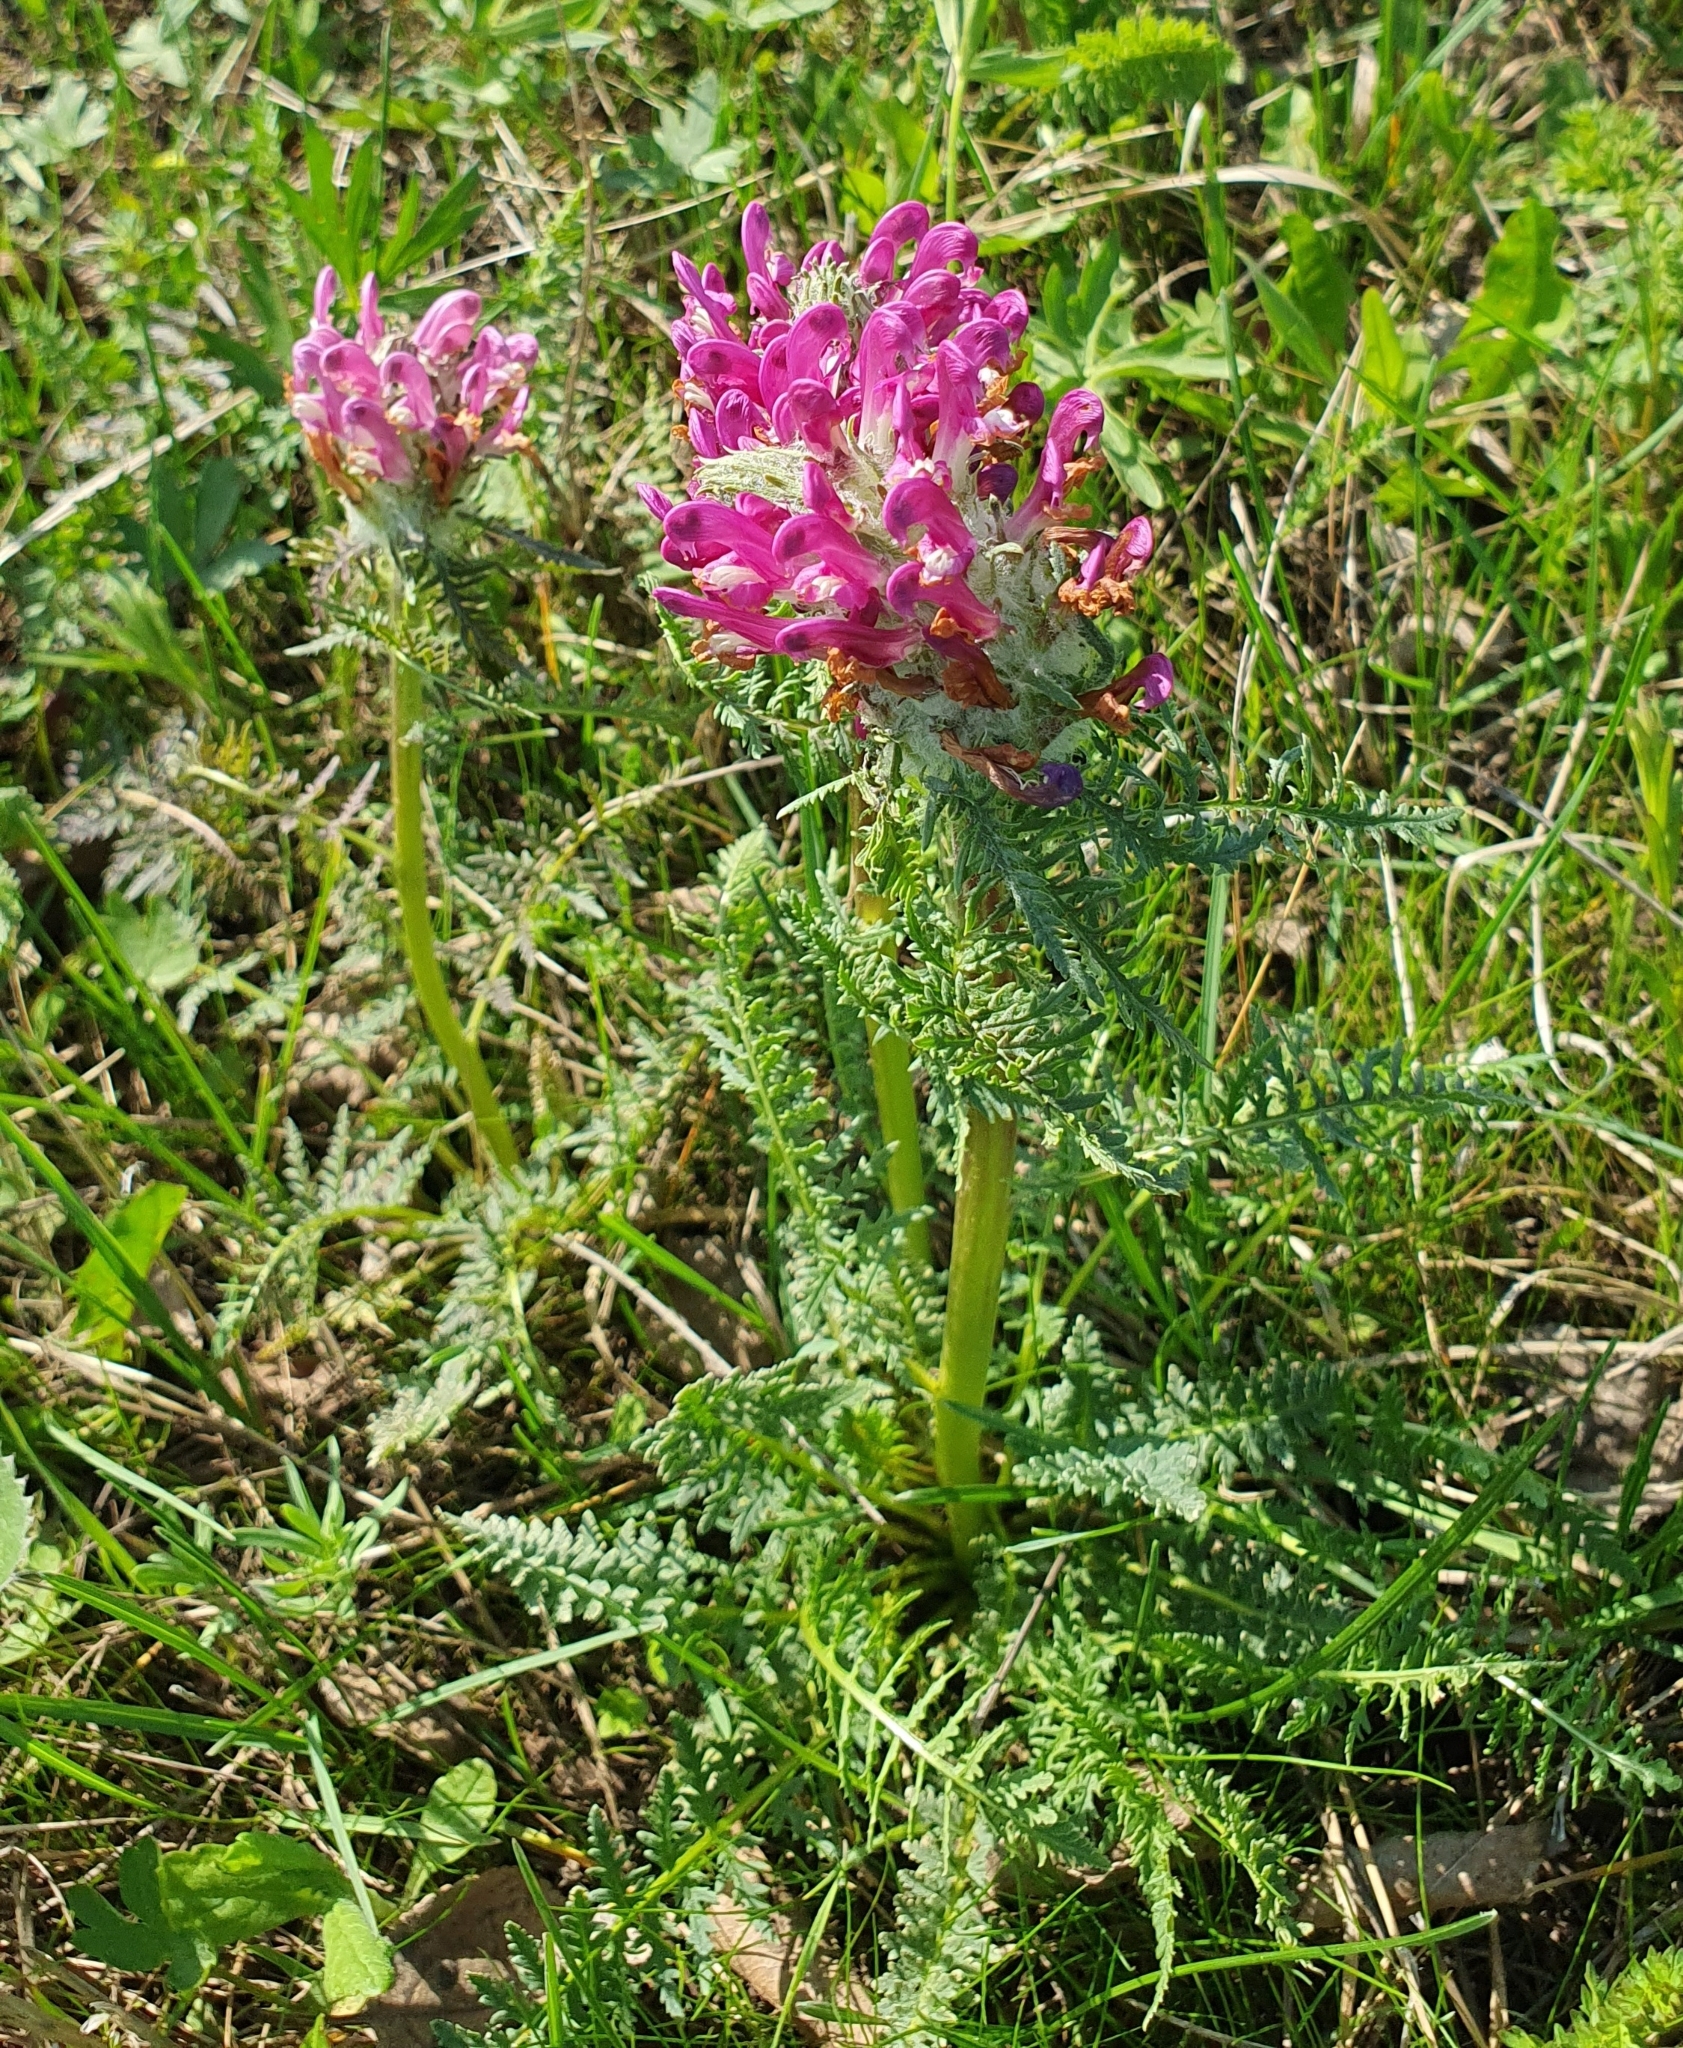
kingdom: Plantae
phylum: Tracheophyta
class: Magnoliopsida
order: Lamiales
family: Orobanchaceae
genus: Pedicularis
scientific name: Pedicularis dasystachys
